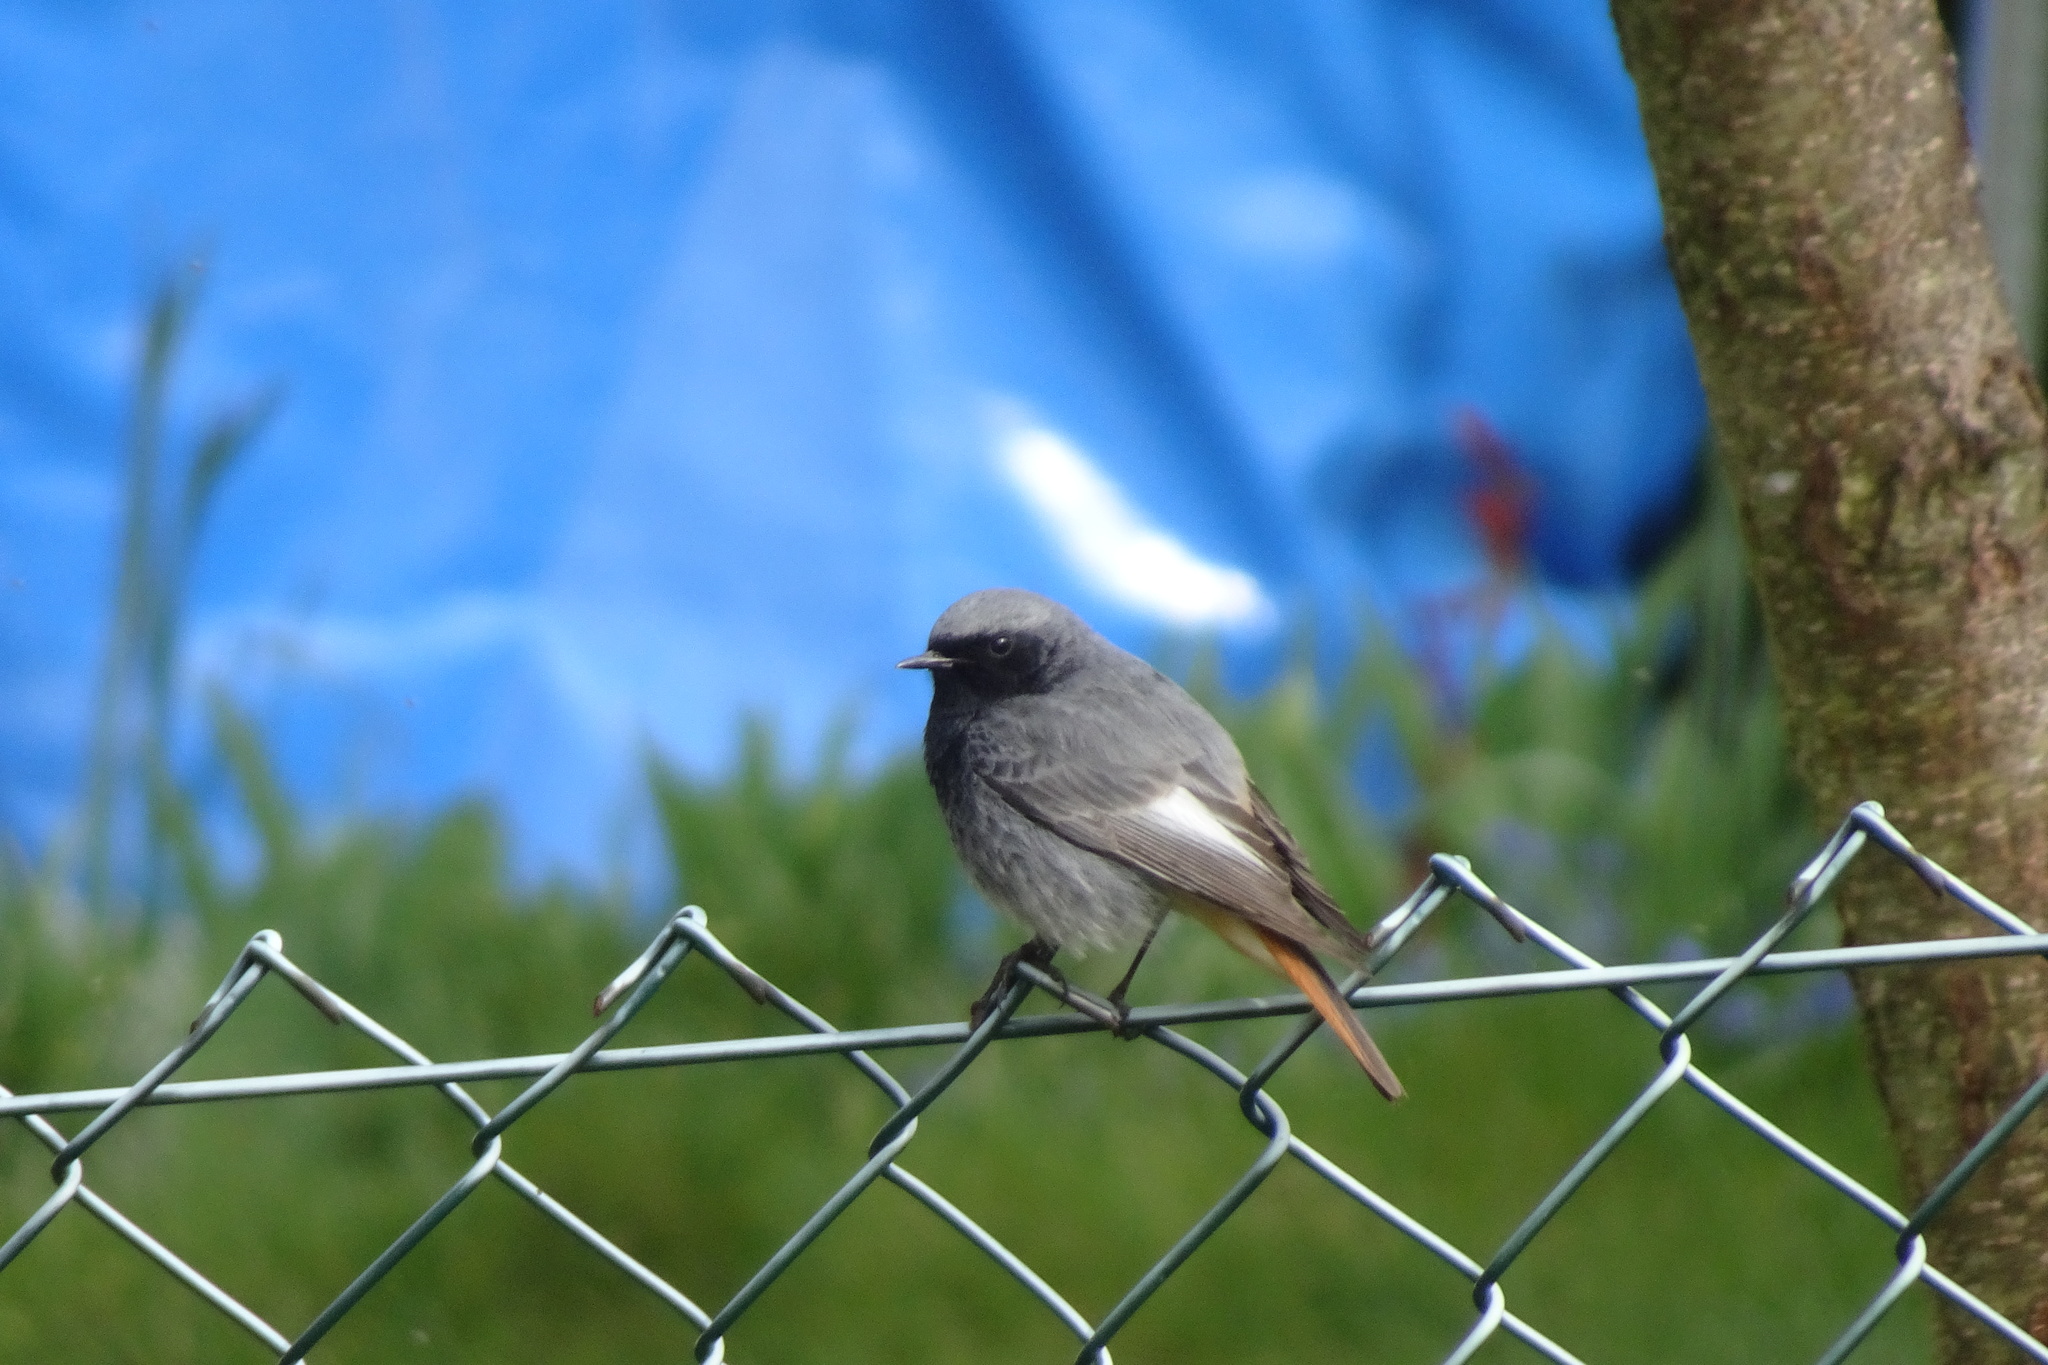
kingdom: Animalia
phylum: Chordata
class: Aves
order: Passeriformes
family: Muscicapidae
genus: Phoenicurus
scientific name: Phoenicurus ochruros
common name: Black redstart
